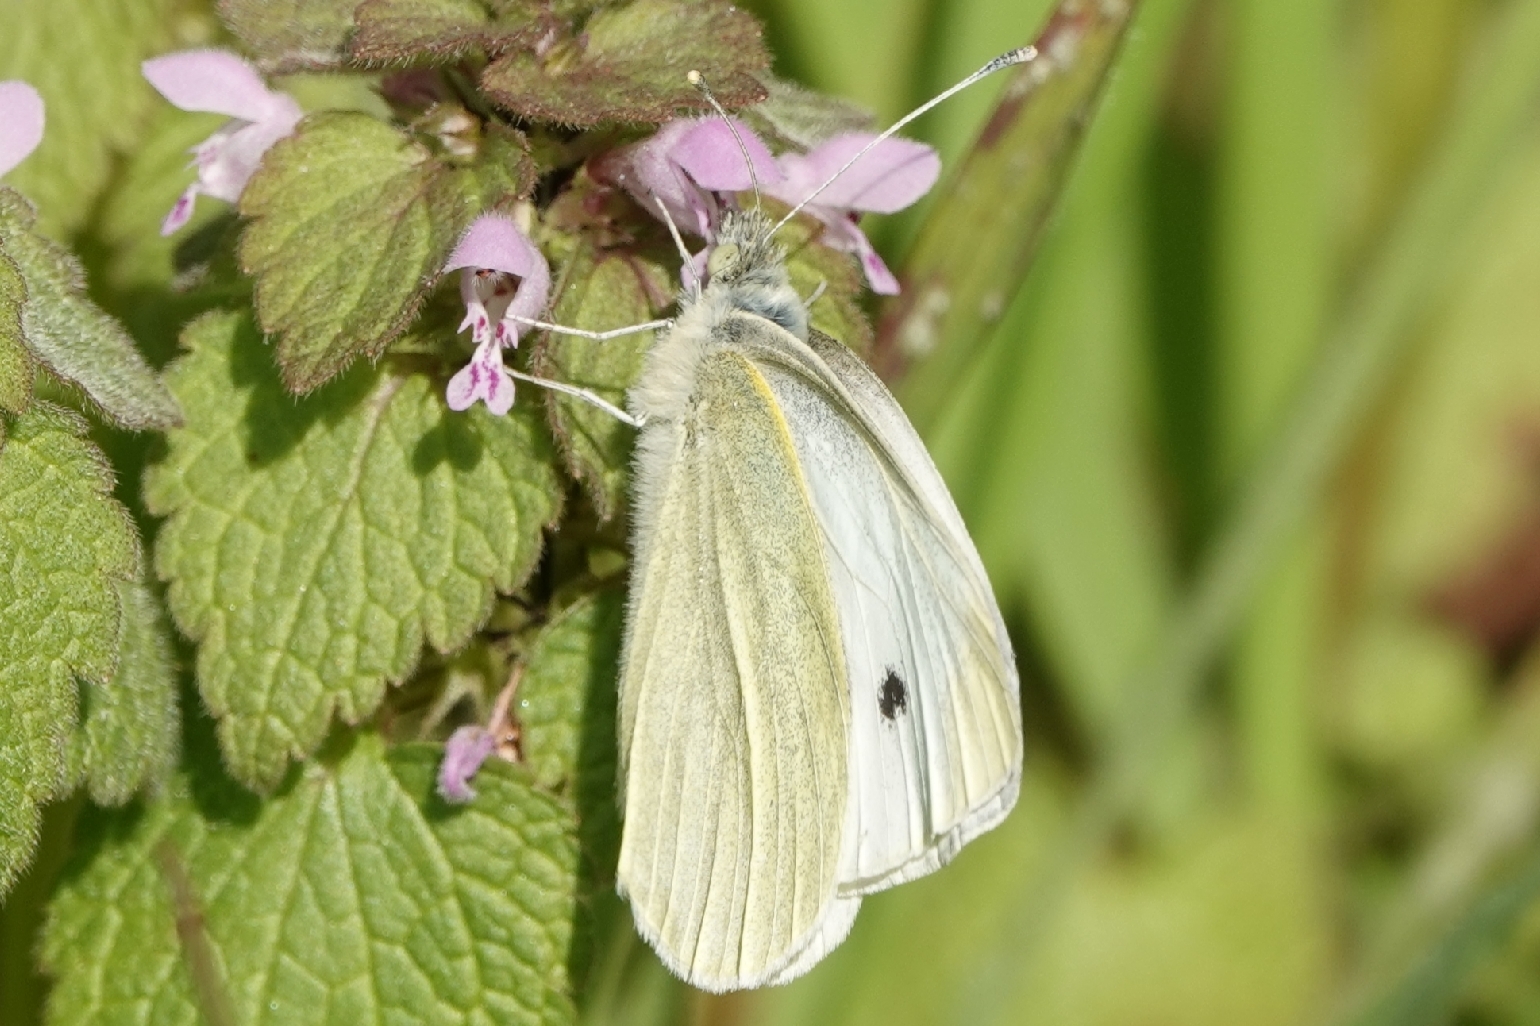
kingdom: Animalia
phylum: Arthropoda
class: Insecta
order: Lepidoptera
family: Pieridae
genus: Pieris
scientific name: Pieris rapae
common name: Small white
